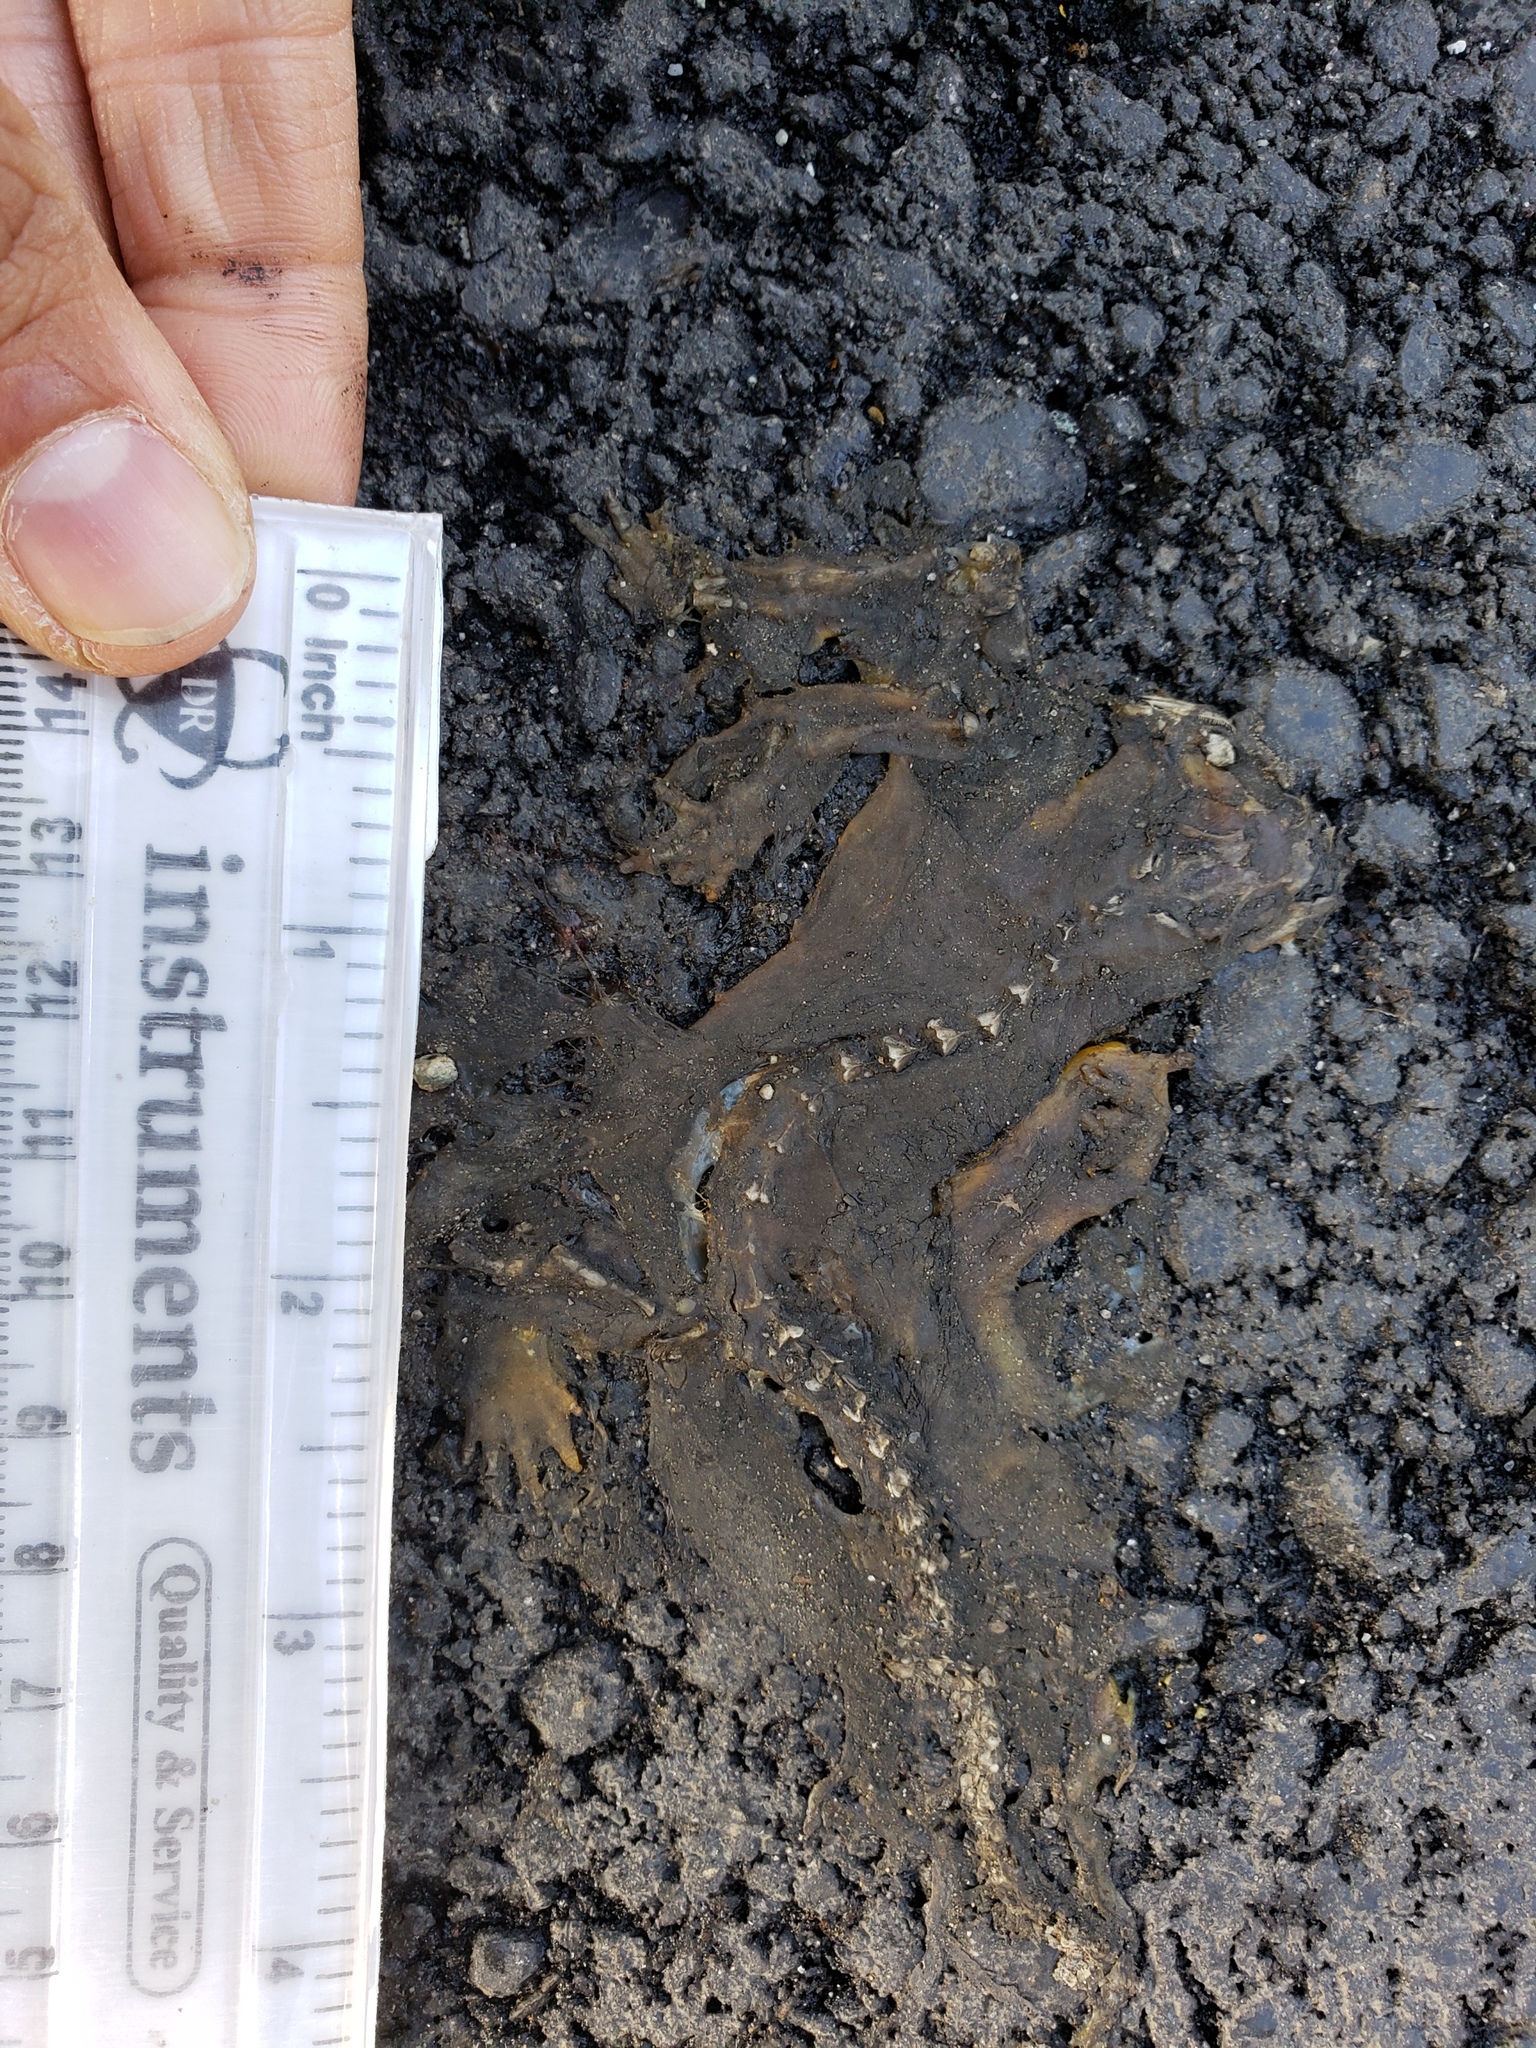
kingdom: Animalia
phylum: Chordata
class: Amphibia
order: Caudata
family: Salamandridae
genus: Taricha
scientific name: Taricha
